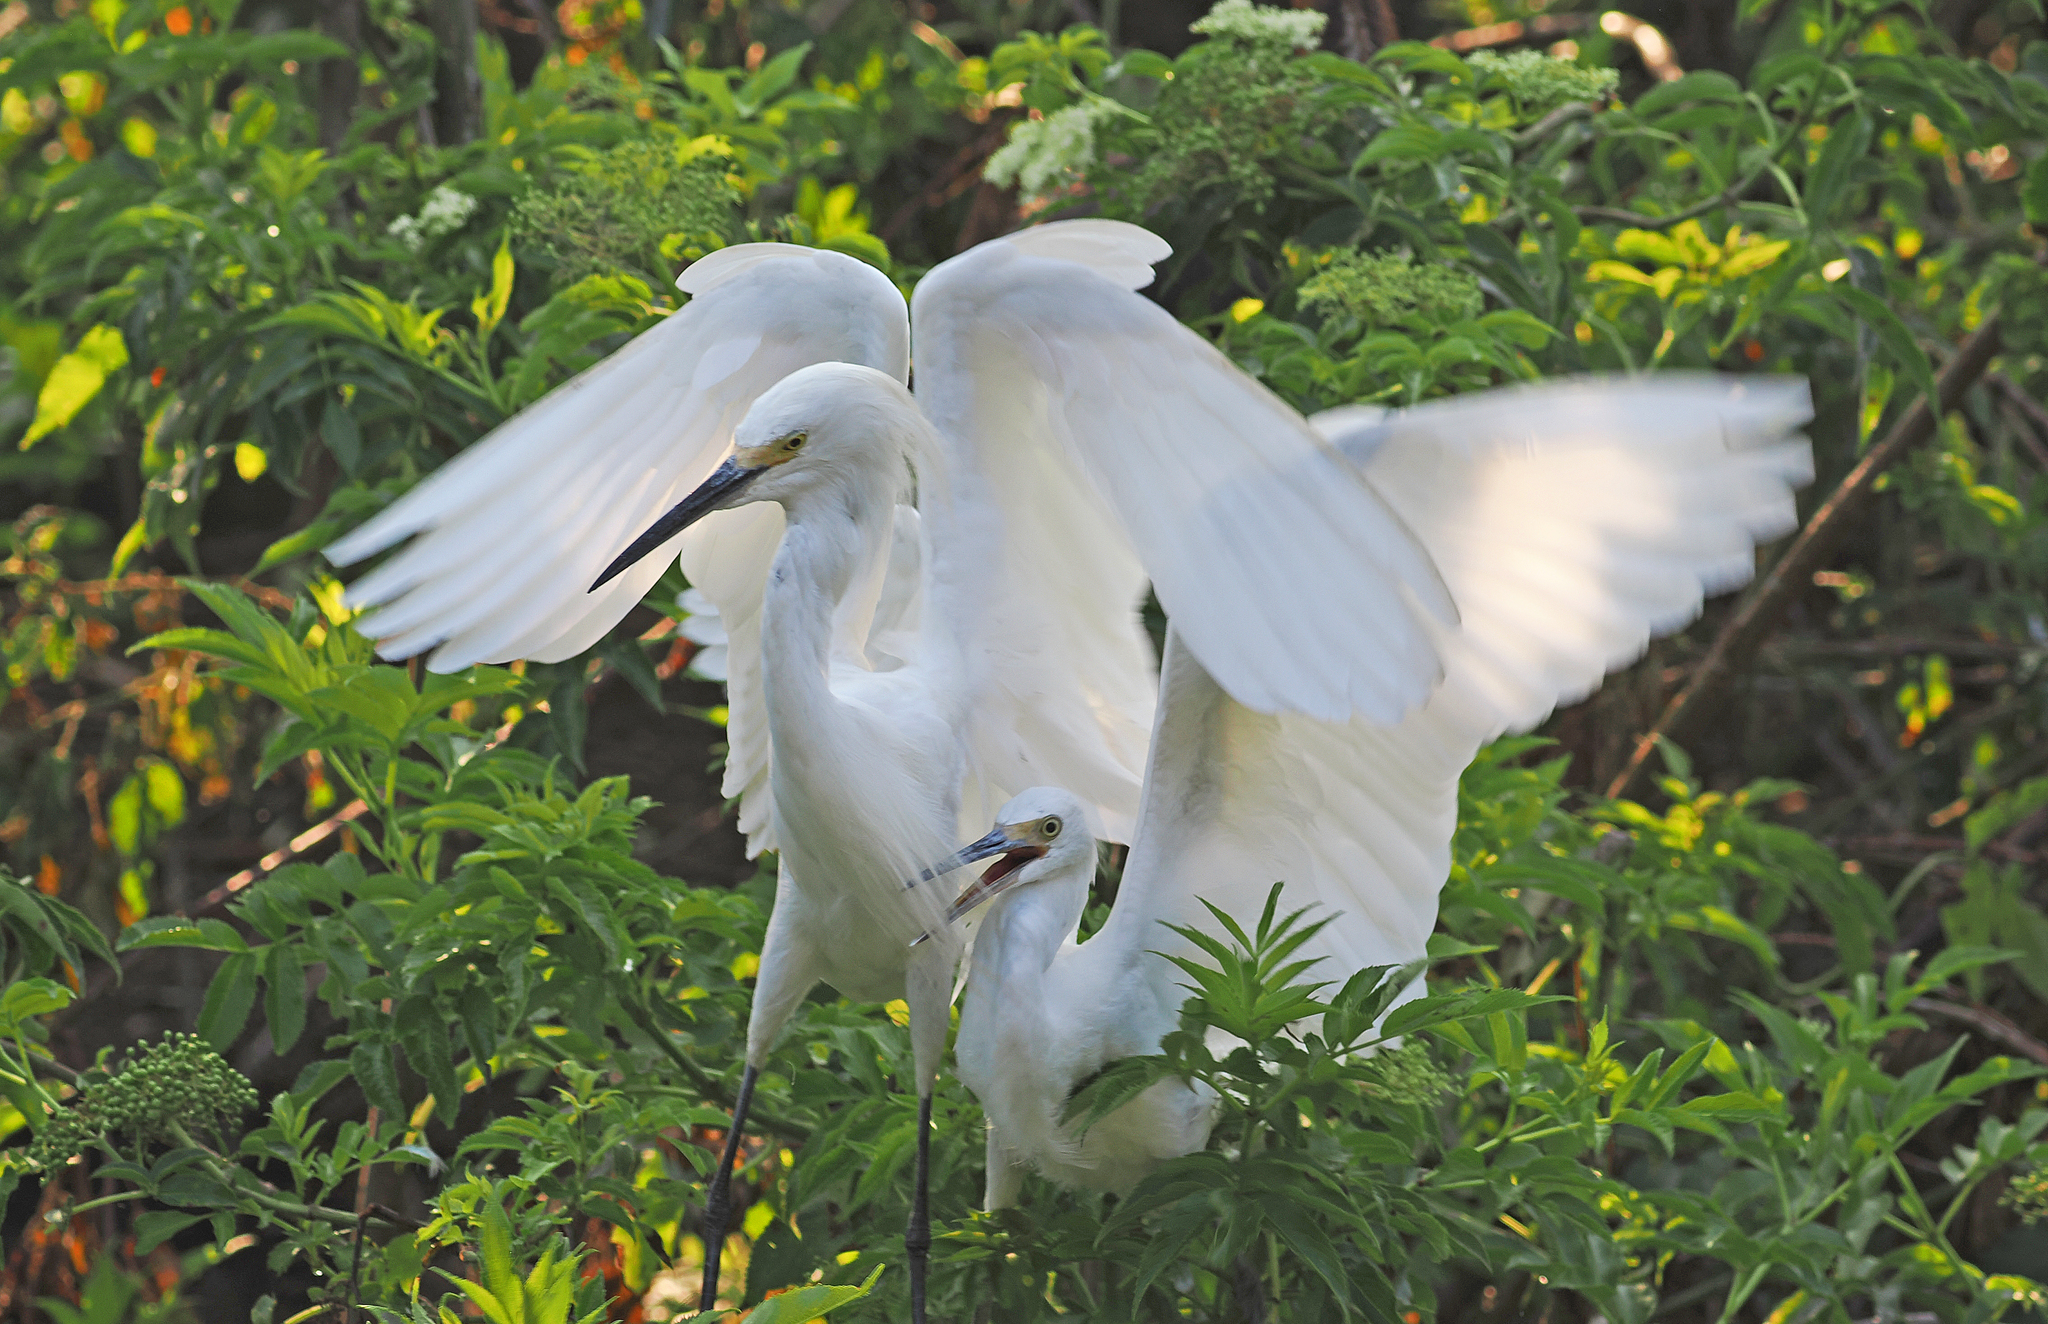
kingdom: Animalia
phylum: Chordata
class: Aves
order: Pelecaniformes
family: Ardeidae
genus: Egretta
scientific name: Egretta thula
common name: Snowy egret
